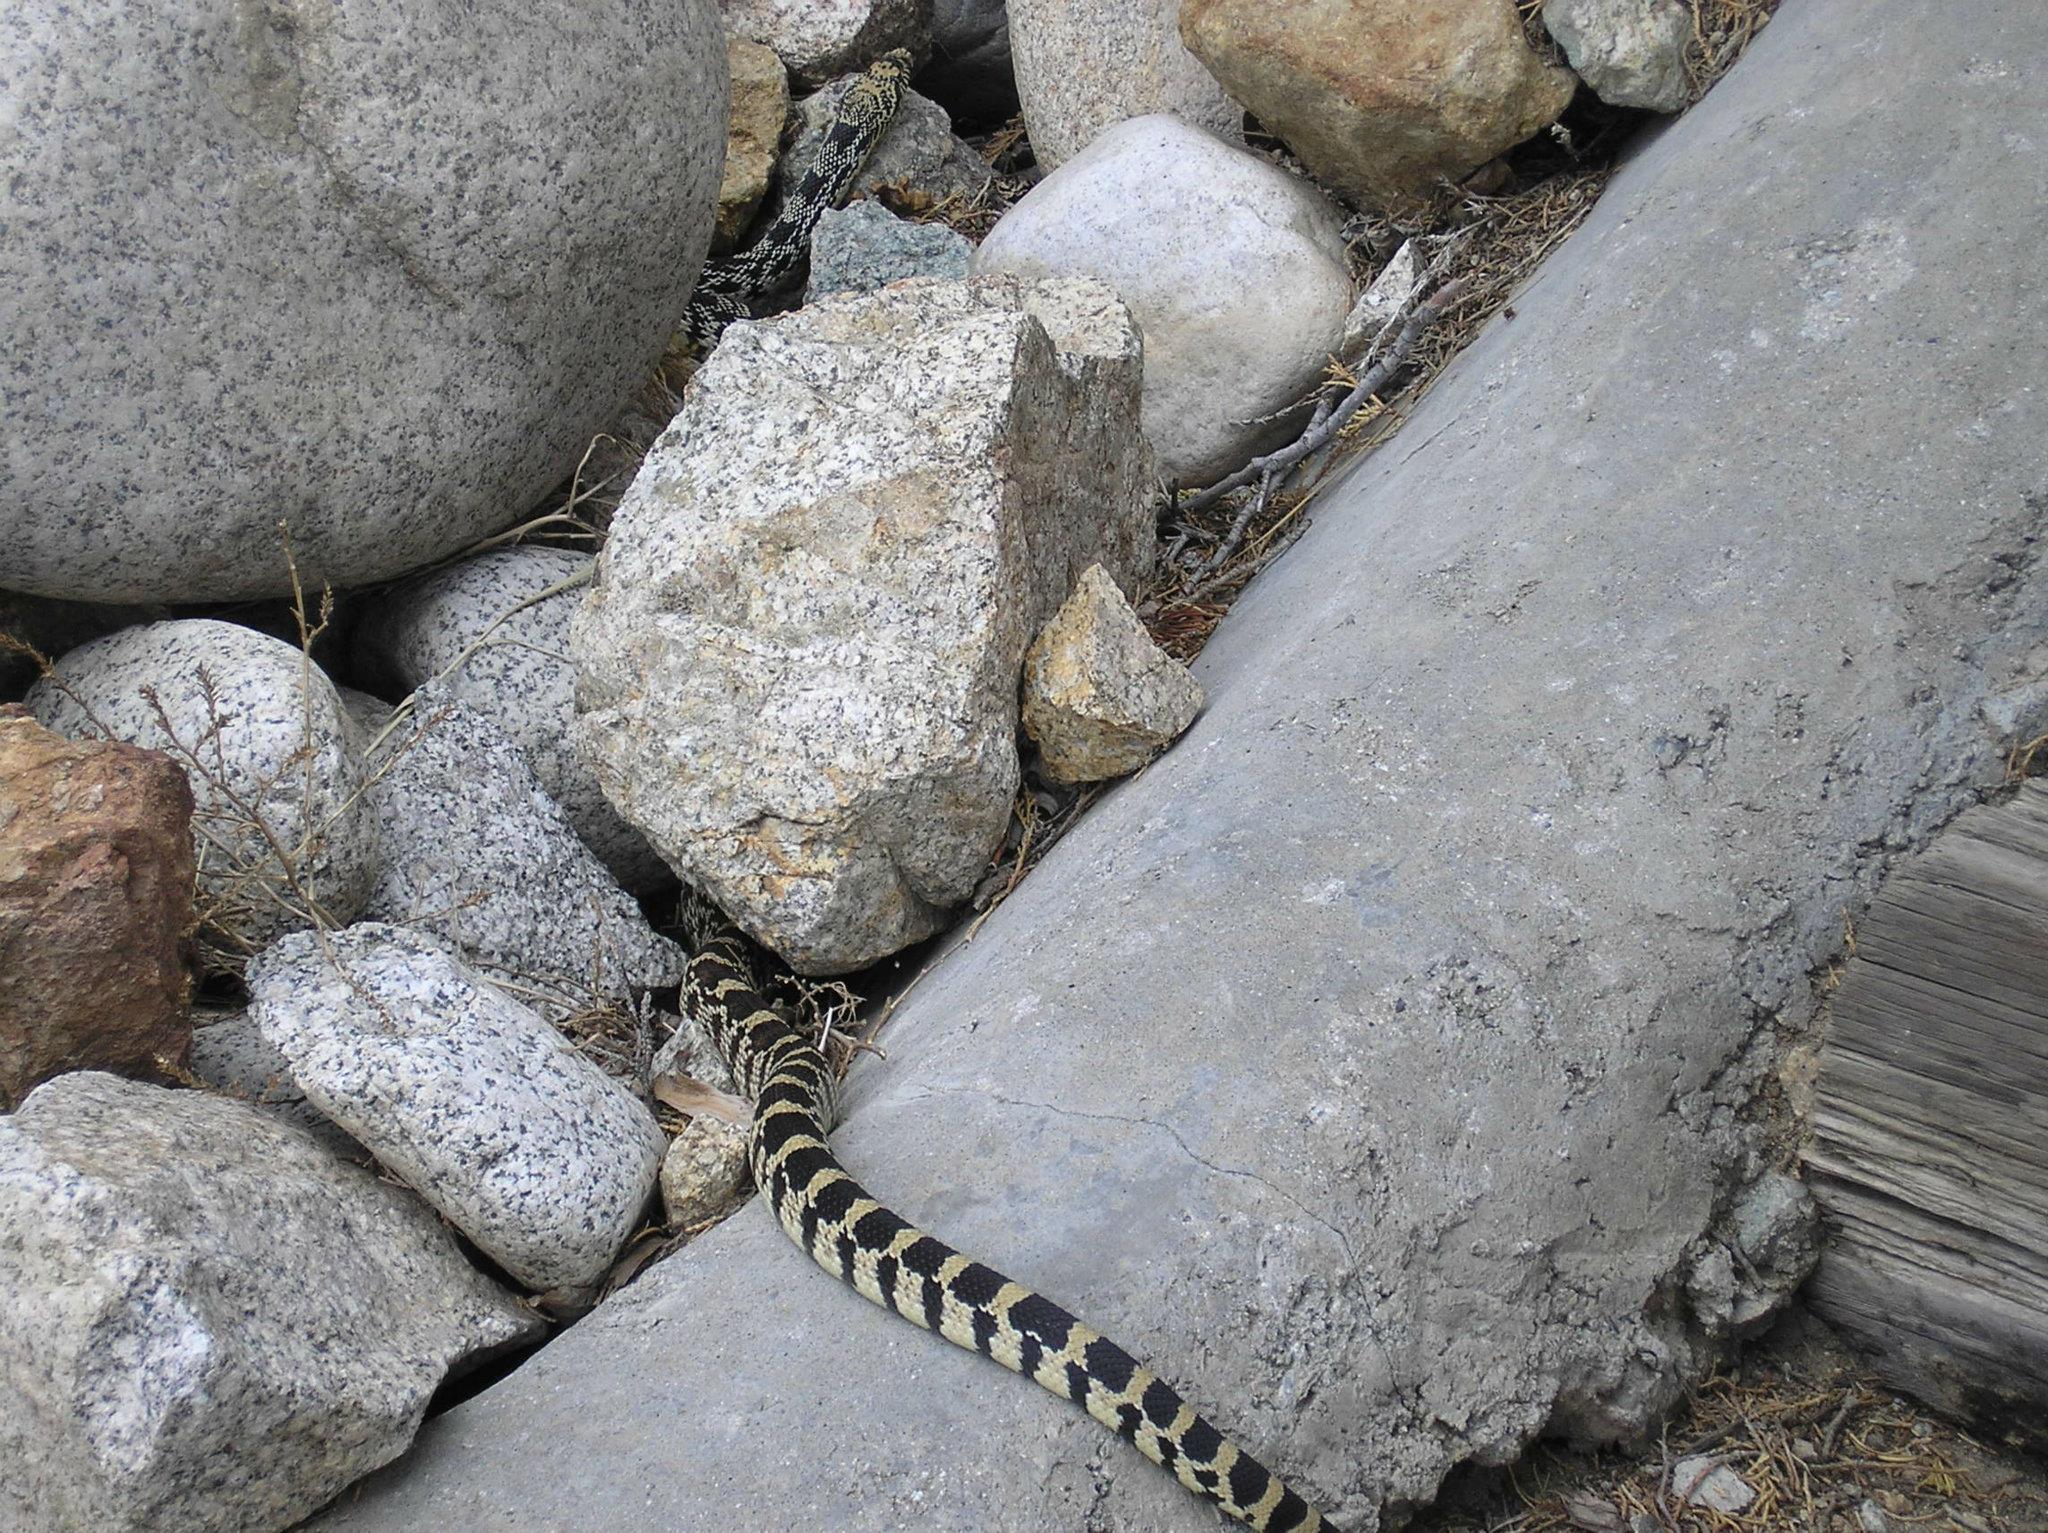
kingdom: Animalia
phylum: Chordata
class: Squamata
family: Colubridae
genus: Pituophis
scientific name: Pituophis catenifer
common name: Gopher snake
